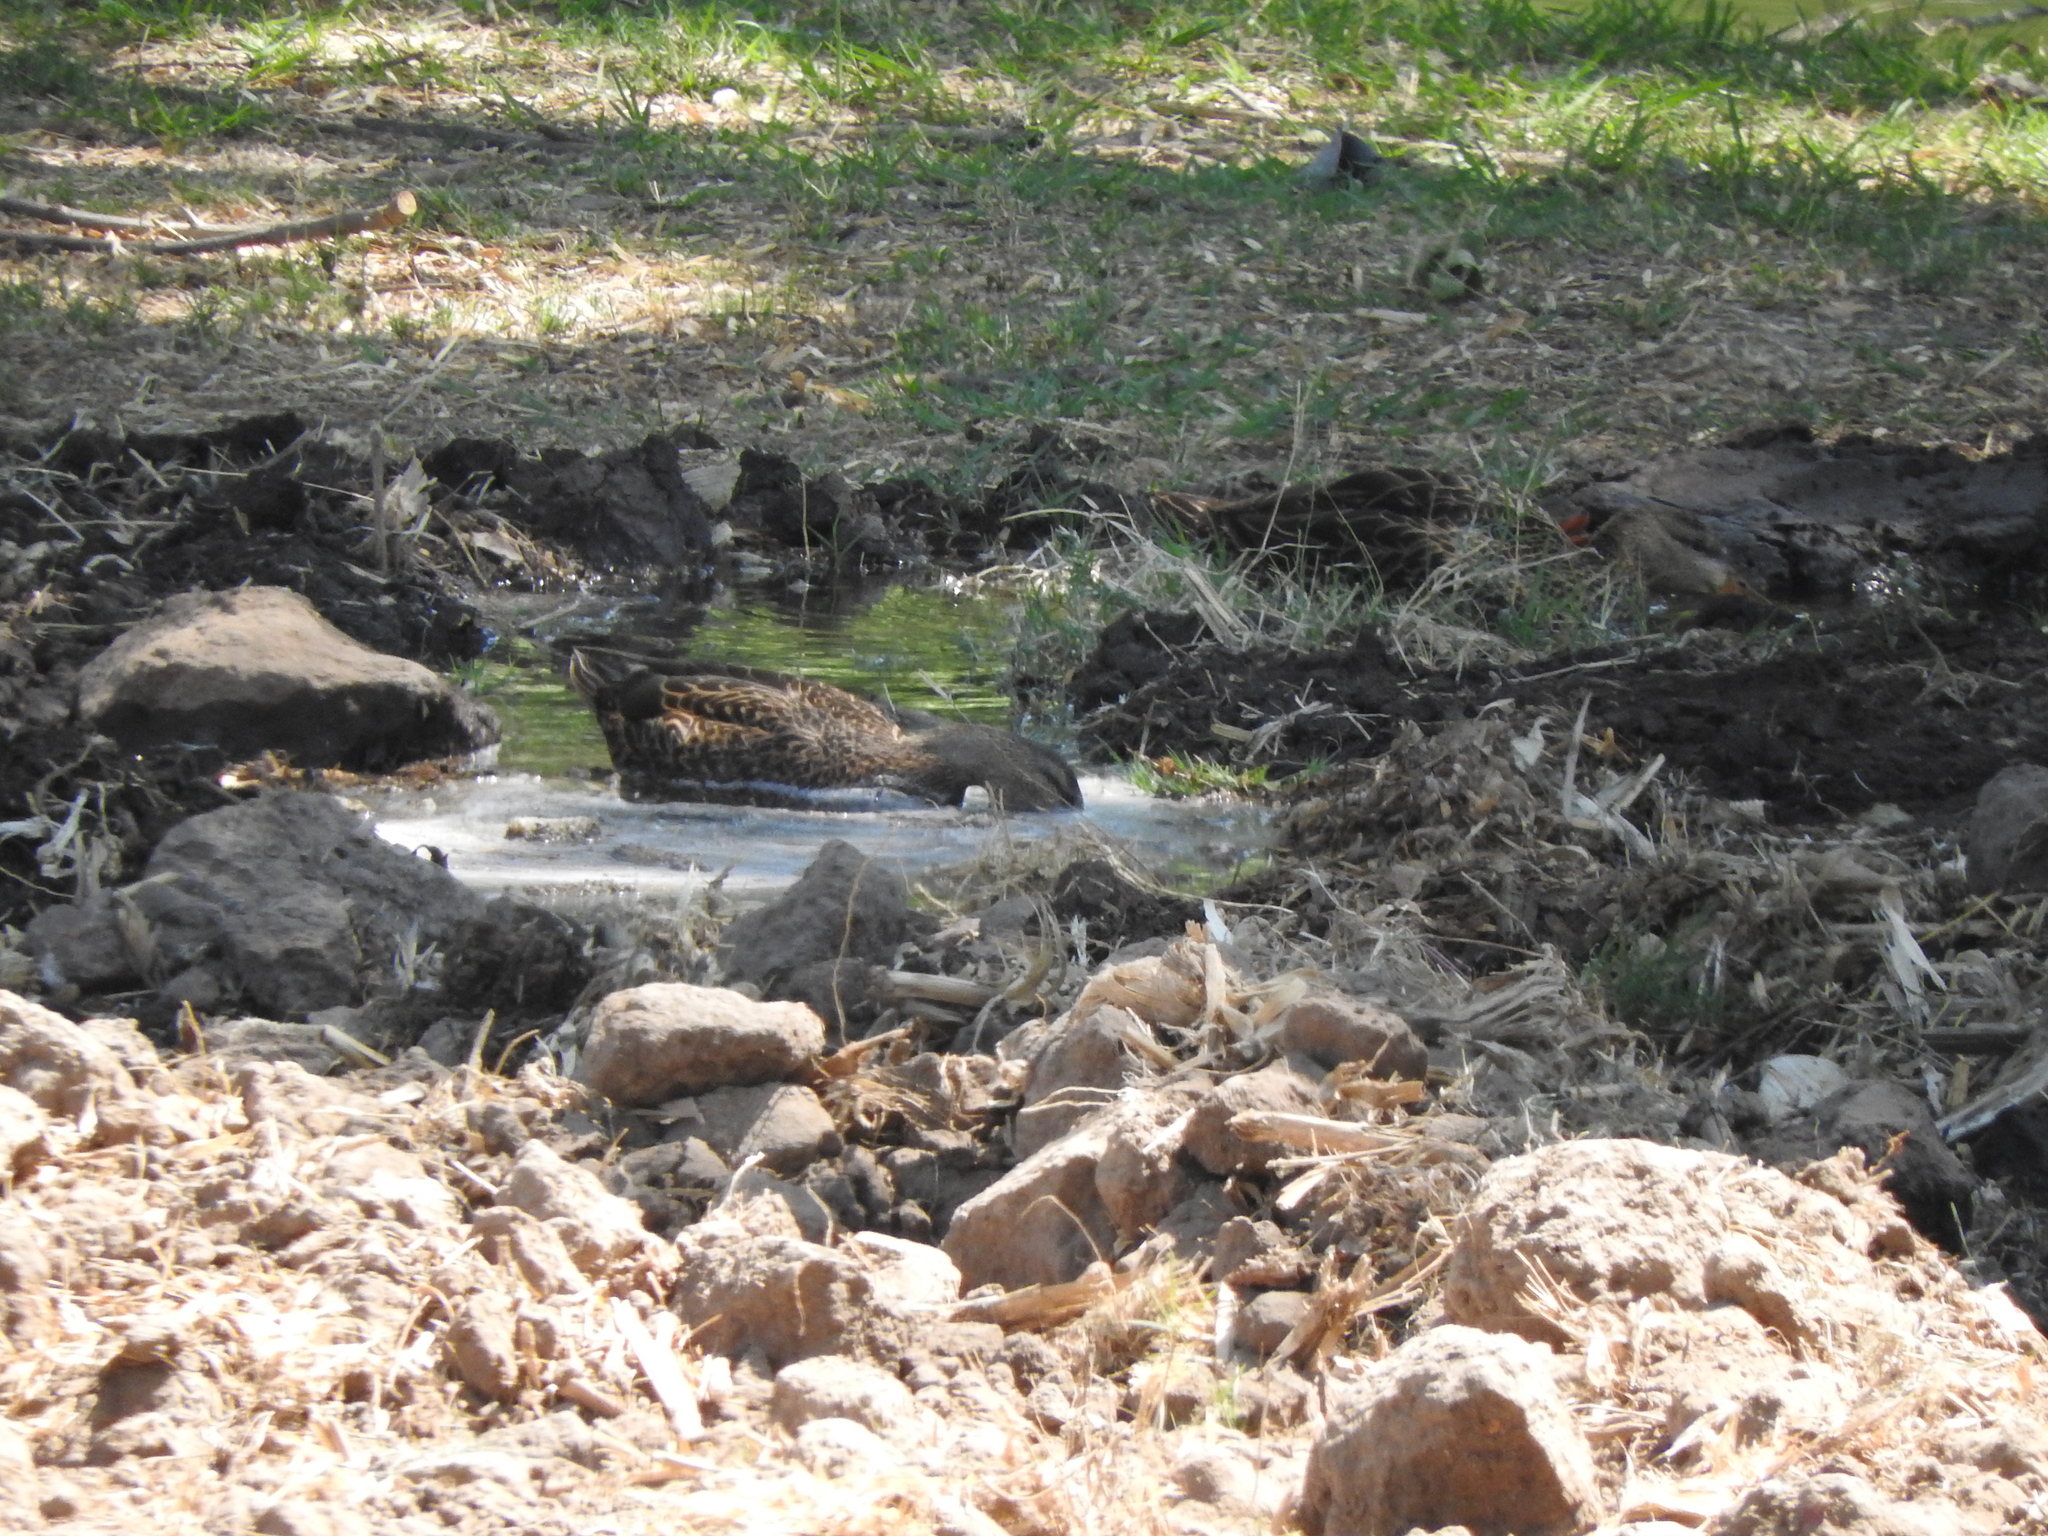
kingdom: Animalia
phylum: Chordata
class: Aves
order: Anseriformes
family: Anatidae
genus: Anas
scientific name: Anas diazi
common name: Mexican duck
